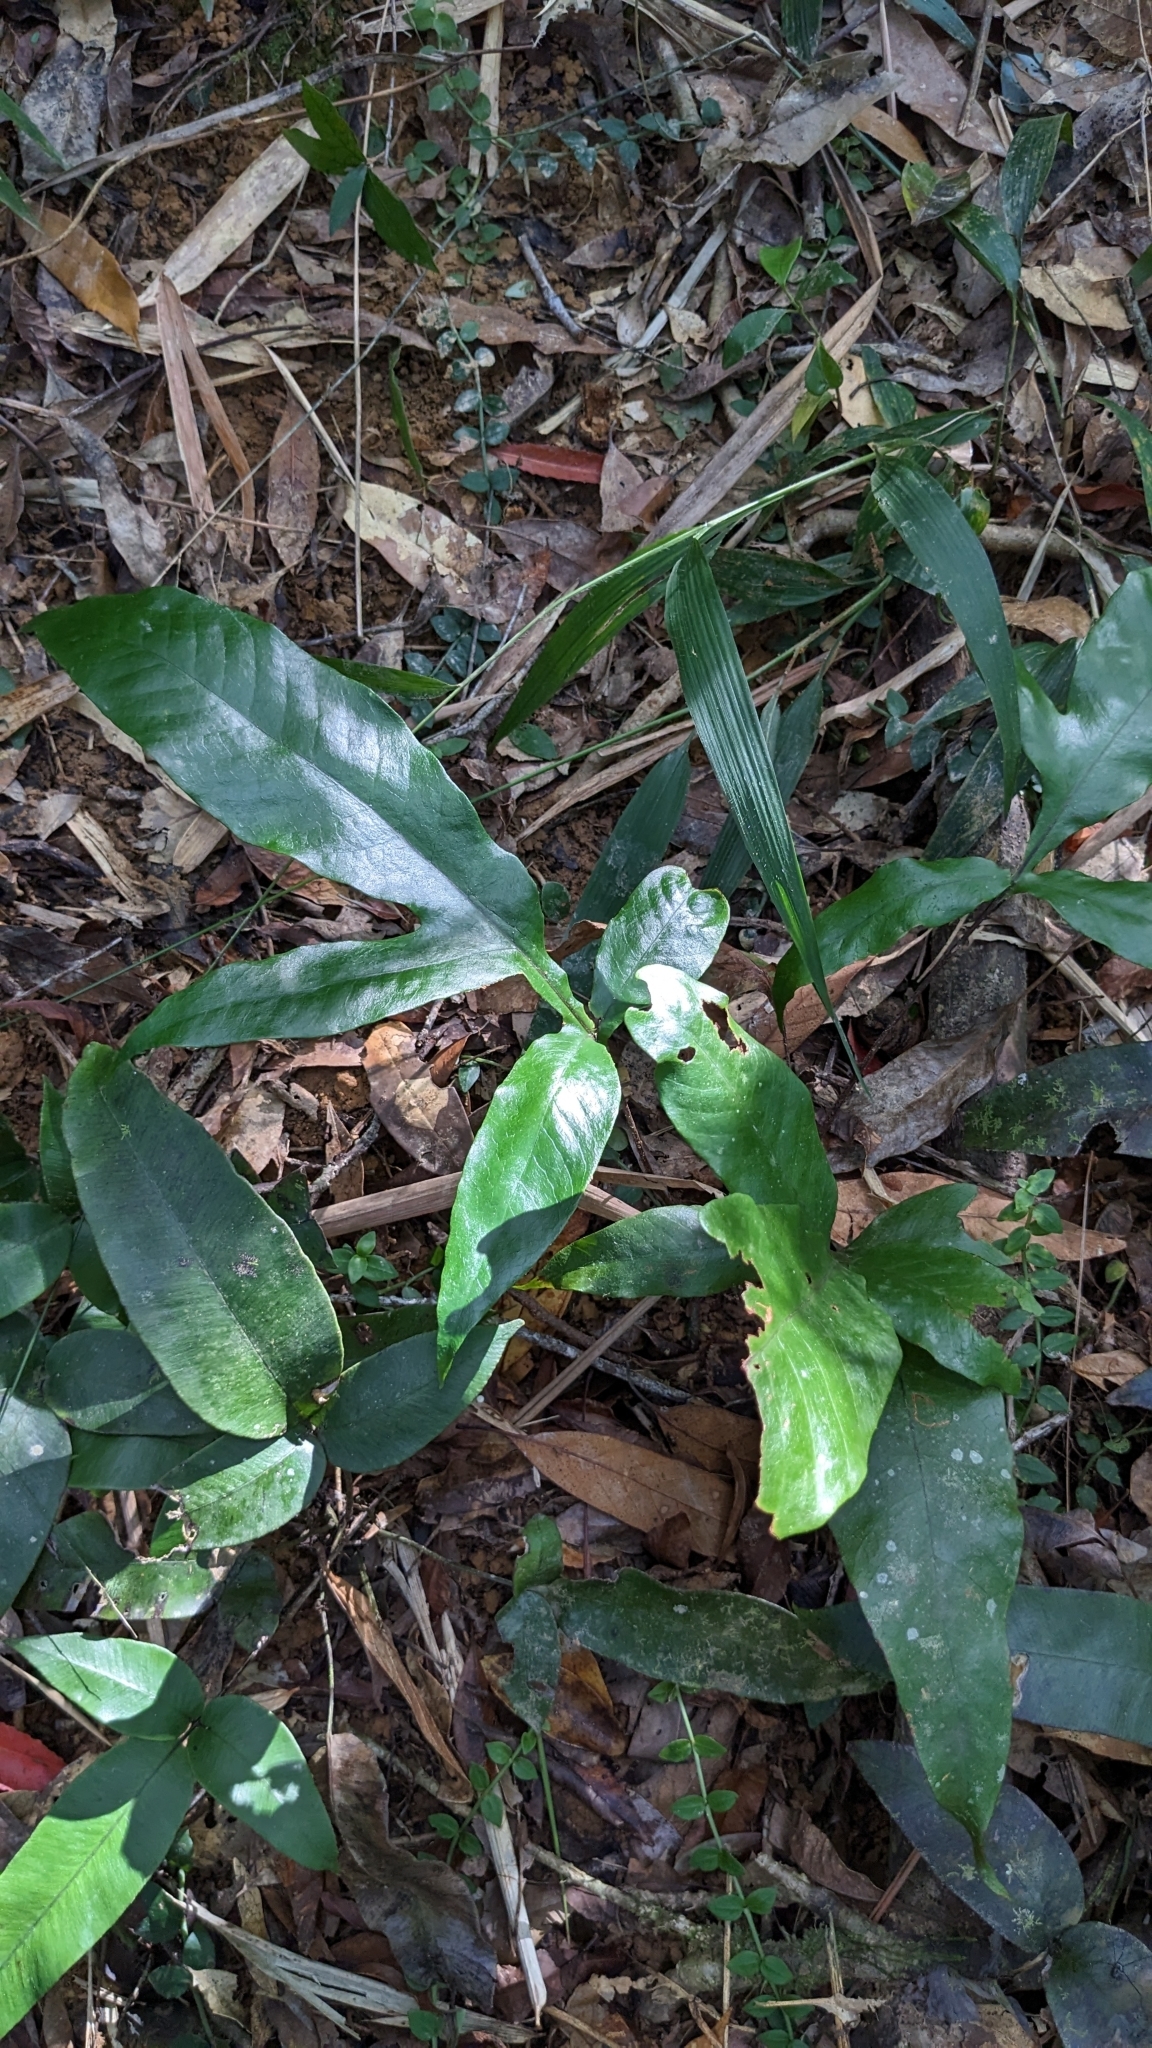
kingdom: Plantae
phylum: Tracheophyta
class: Polypodiopsida
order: Polypodiales
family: Tectariaceae
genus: Tectaria
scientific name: Tectaria harlandii
